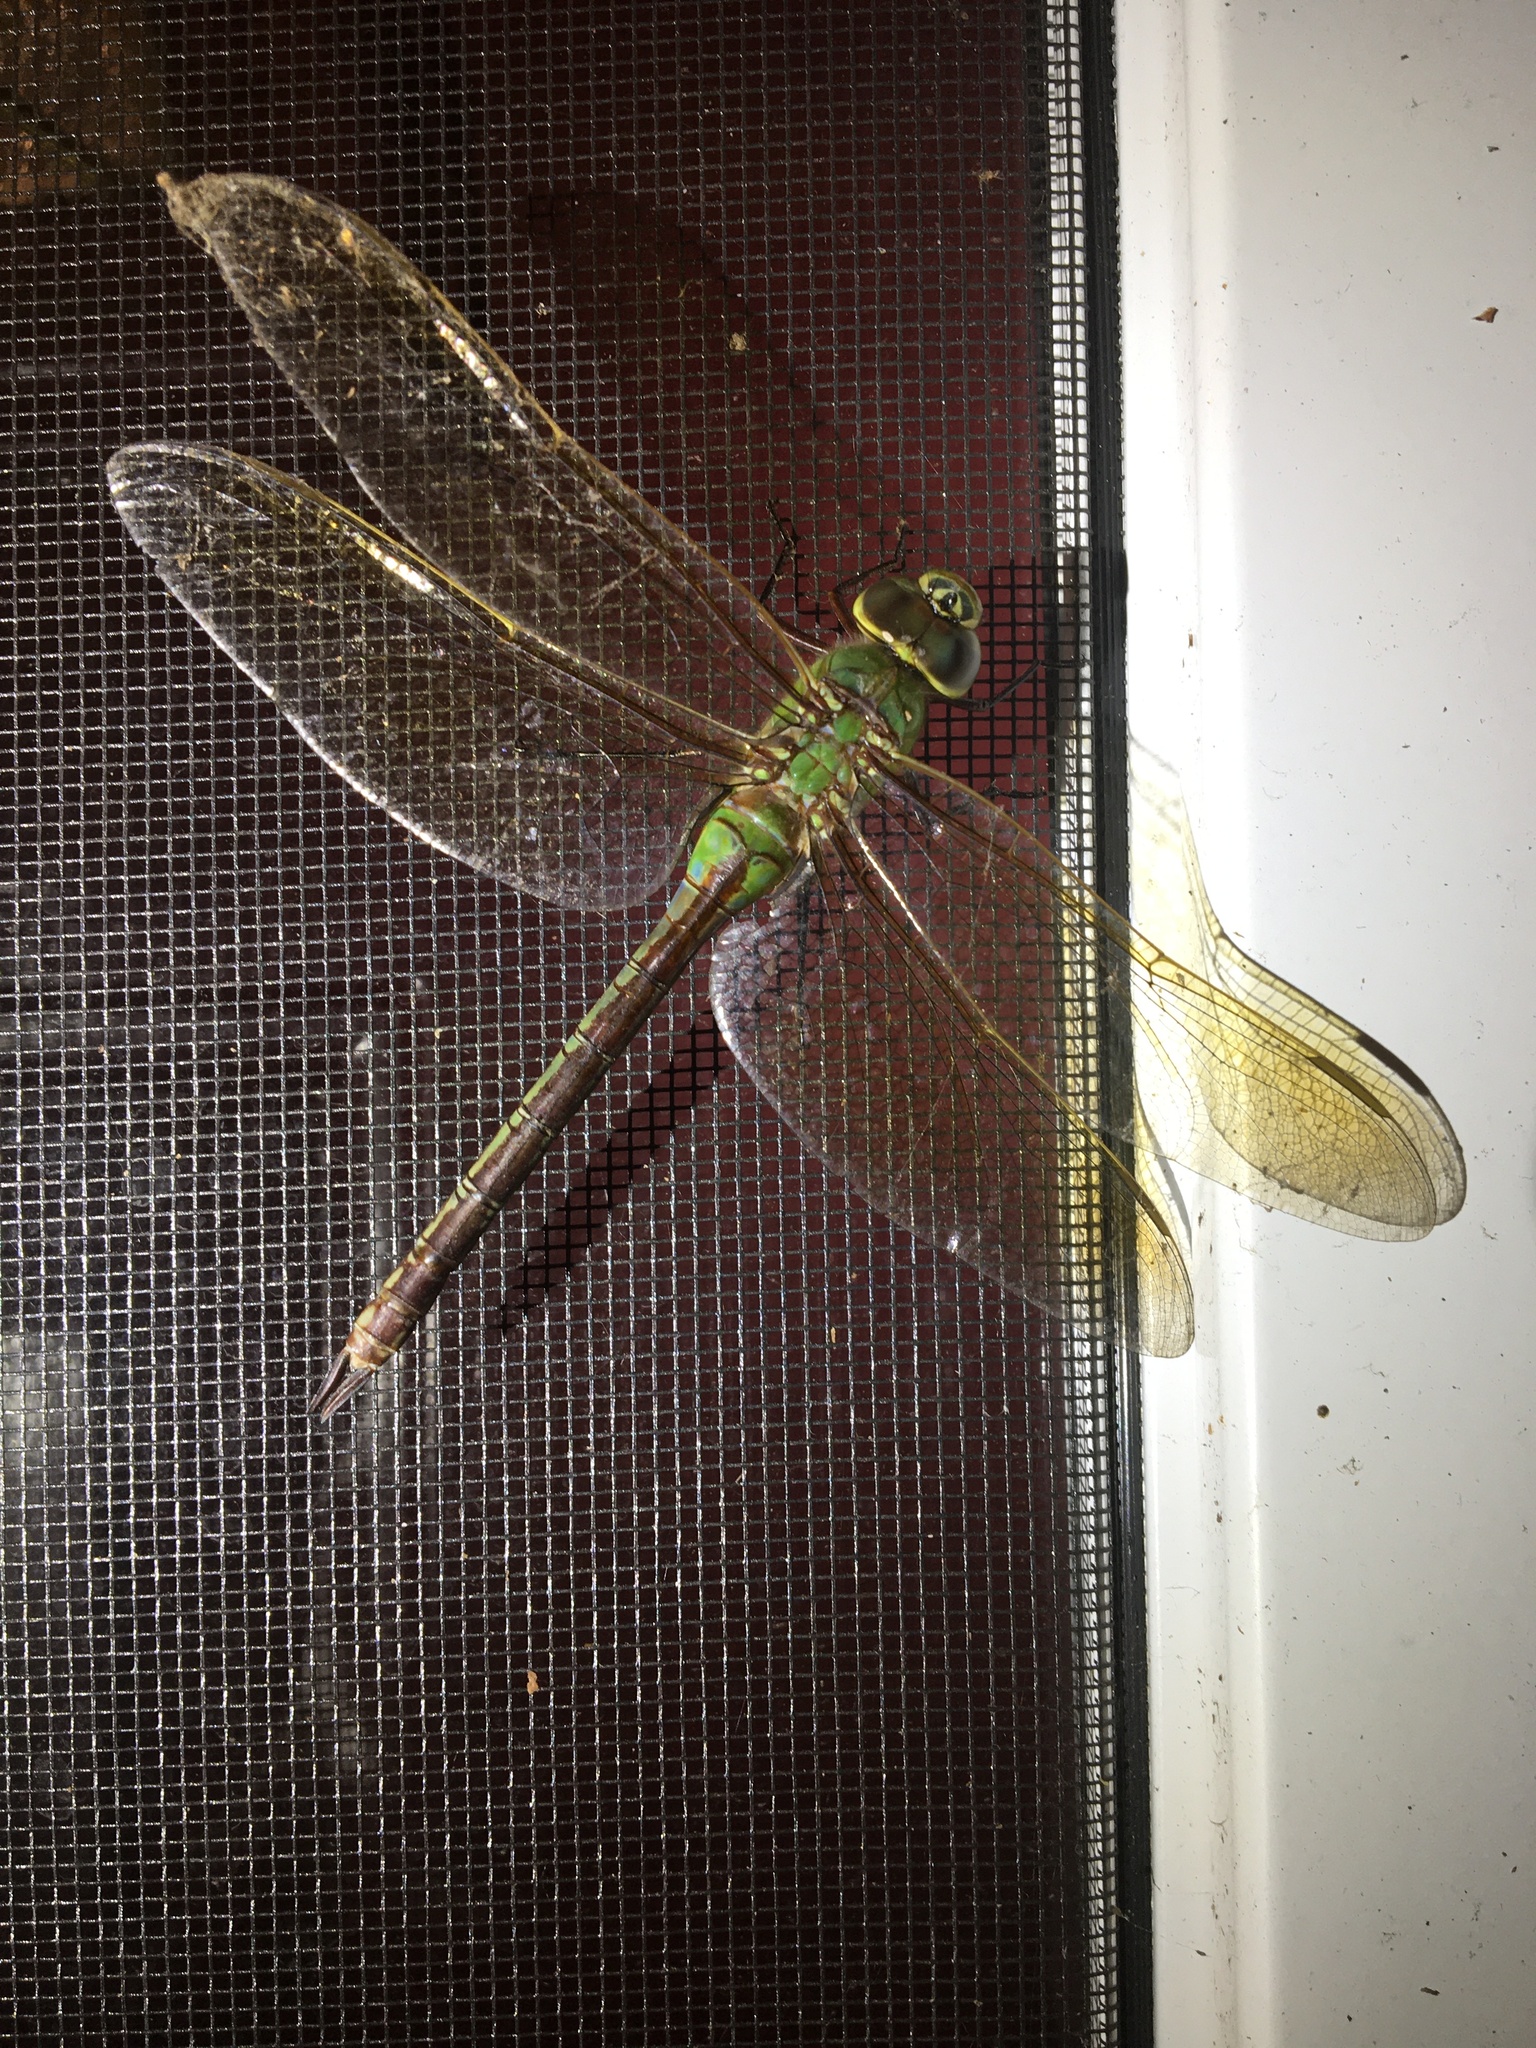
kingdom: Animalia
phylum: Arthropoda
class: Insecta
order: Odonata
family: Aeshnidae
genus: Anax
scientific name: Anax junius
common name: Common green darner
